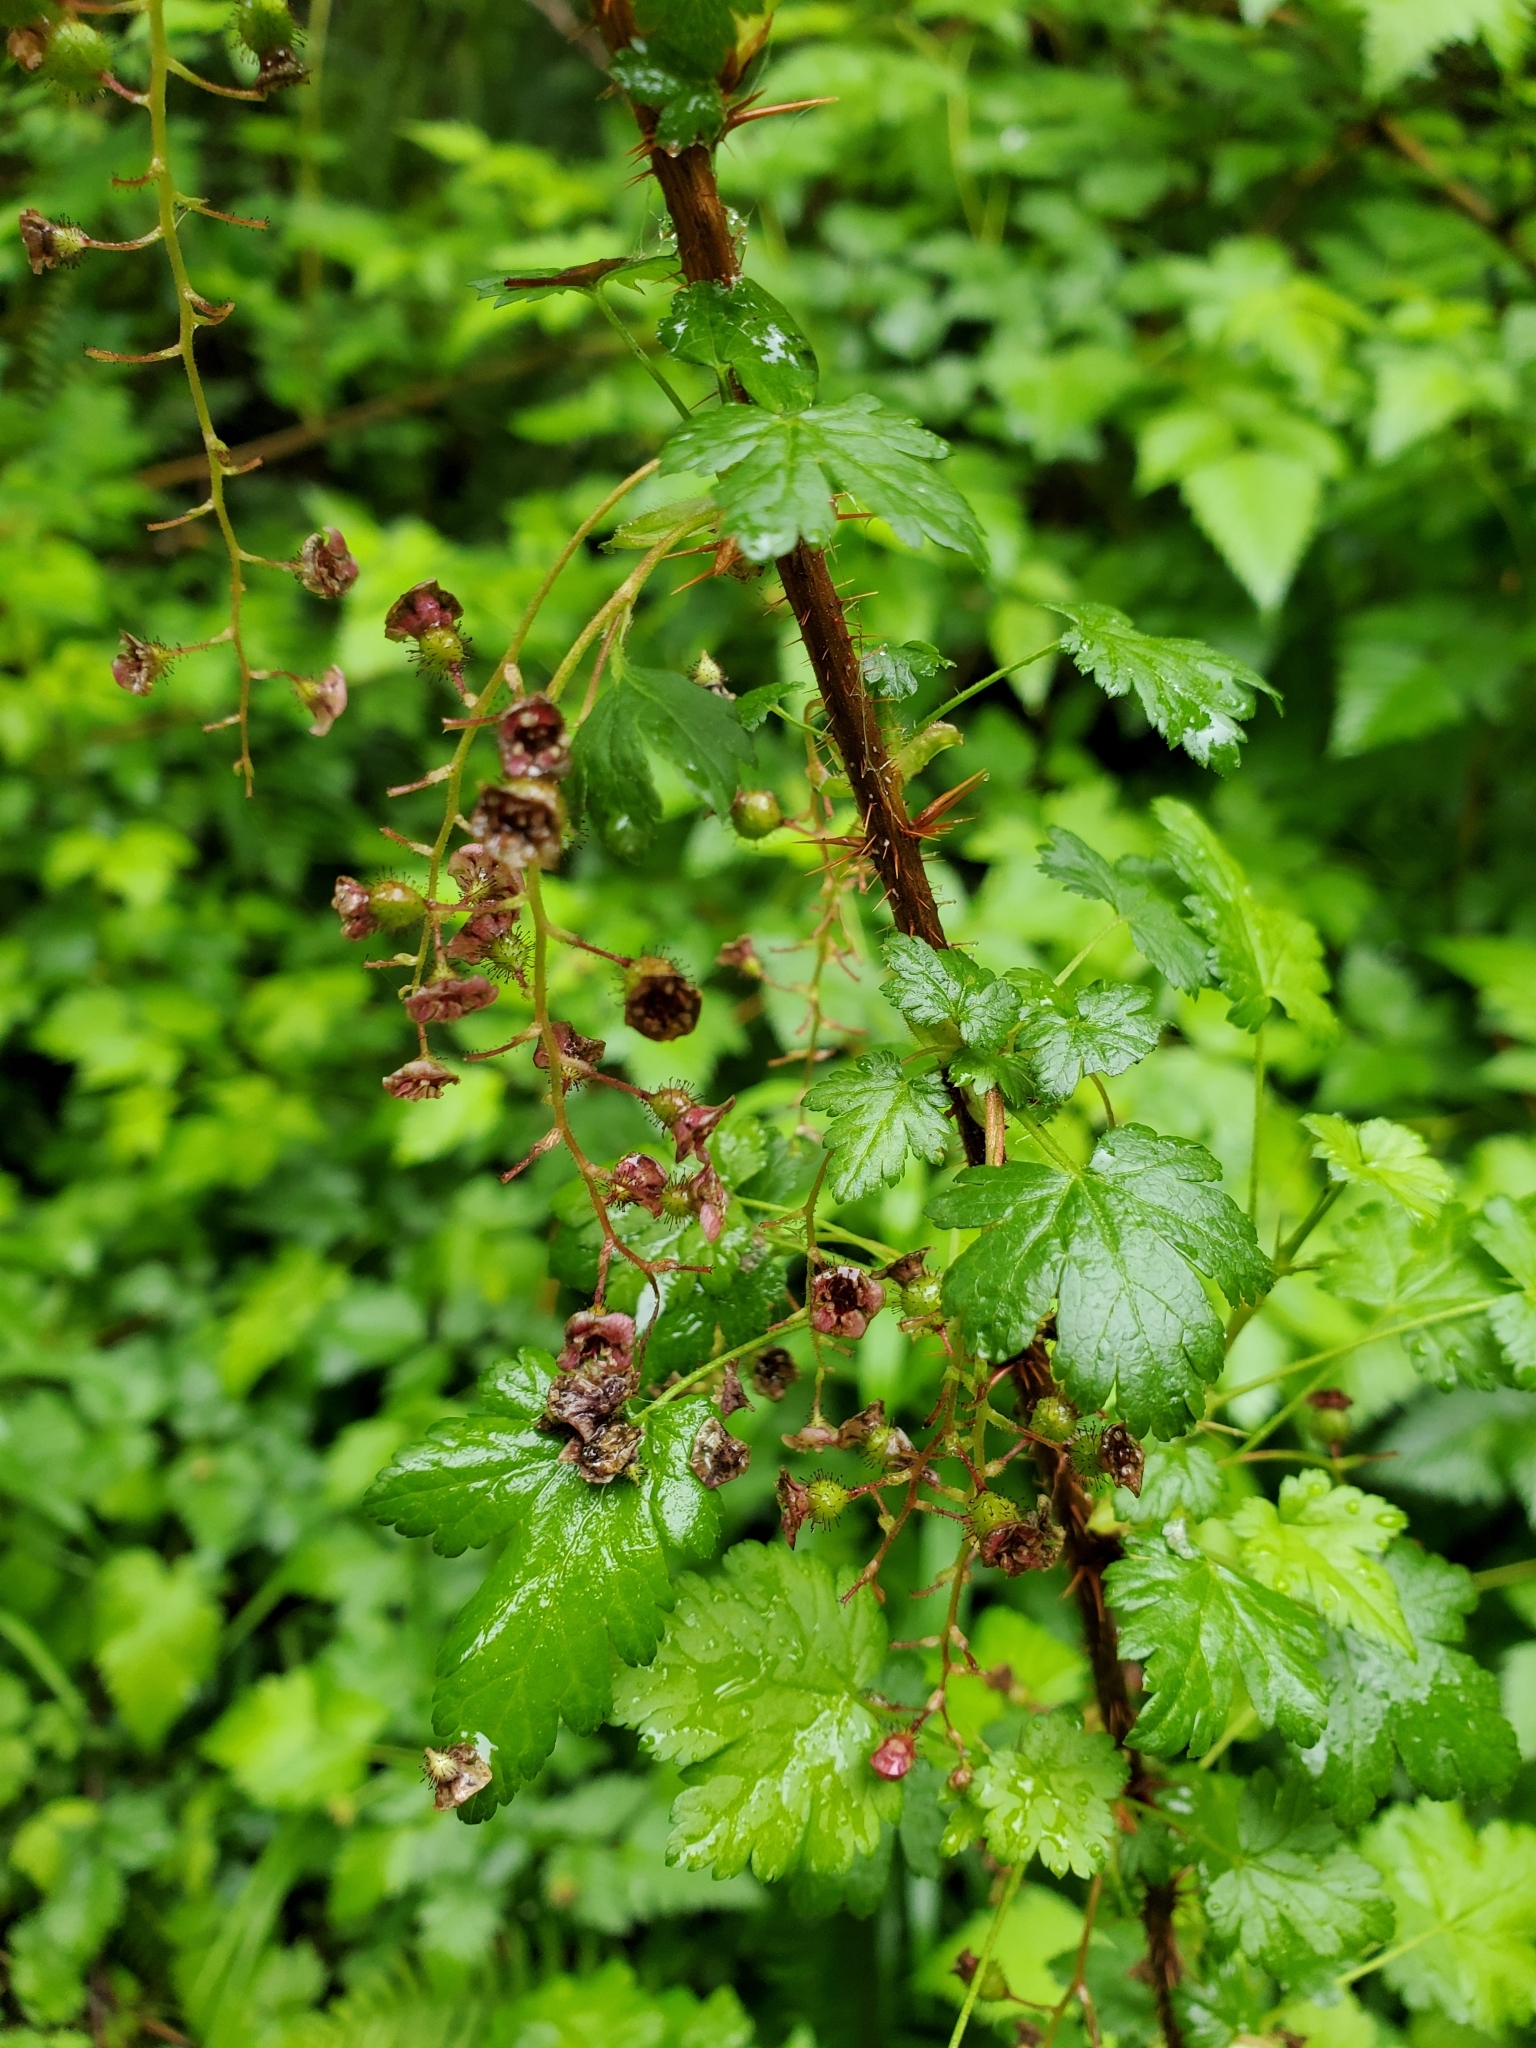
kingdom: Plantae
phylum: Tracheophyta
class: Magnoliopsida
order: Saxifragales
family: Grossulariaceae
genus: Ribes
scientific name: Ribes lacustre
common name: Black gooseberry
